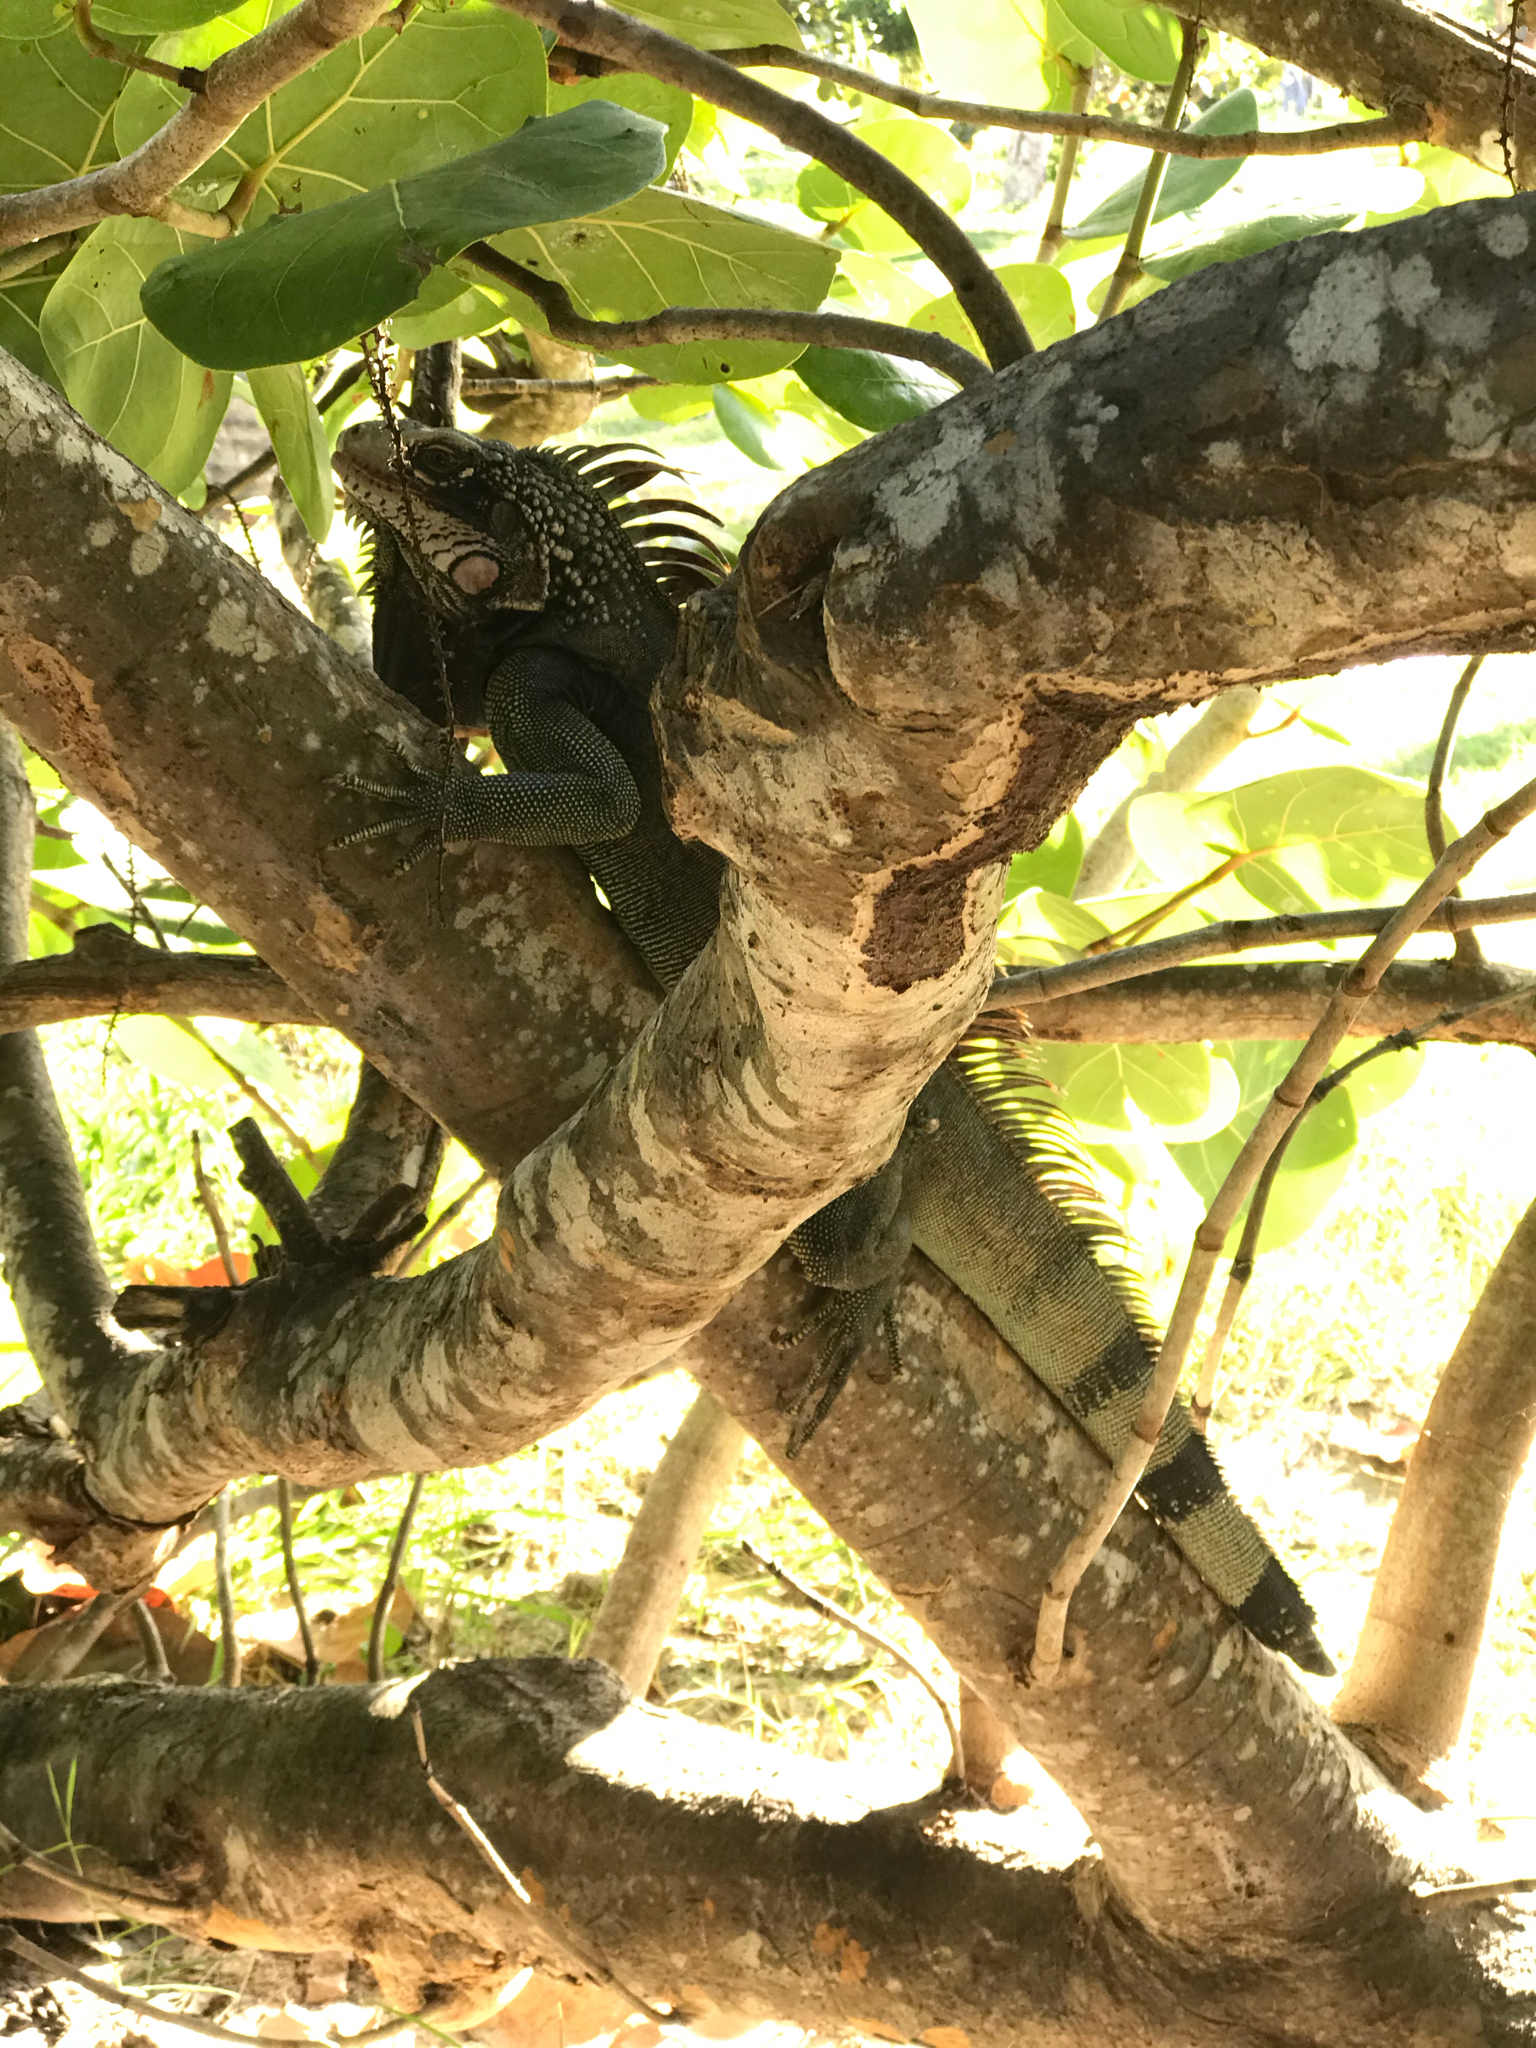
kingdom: Animalia
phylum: Chordata
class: Squamata
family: Iguanidae
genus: Iguana
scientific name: Iguana iguana
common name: Green iguana
